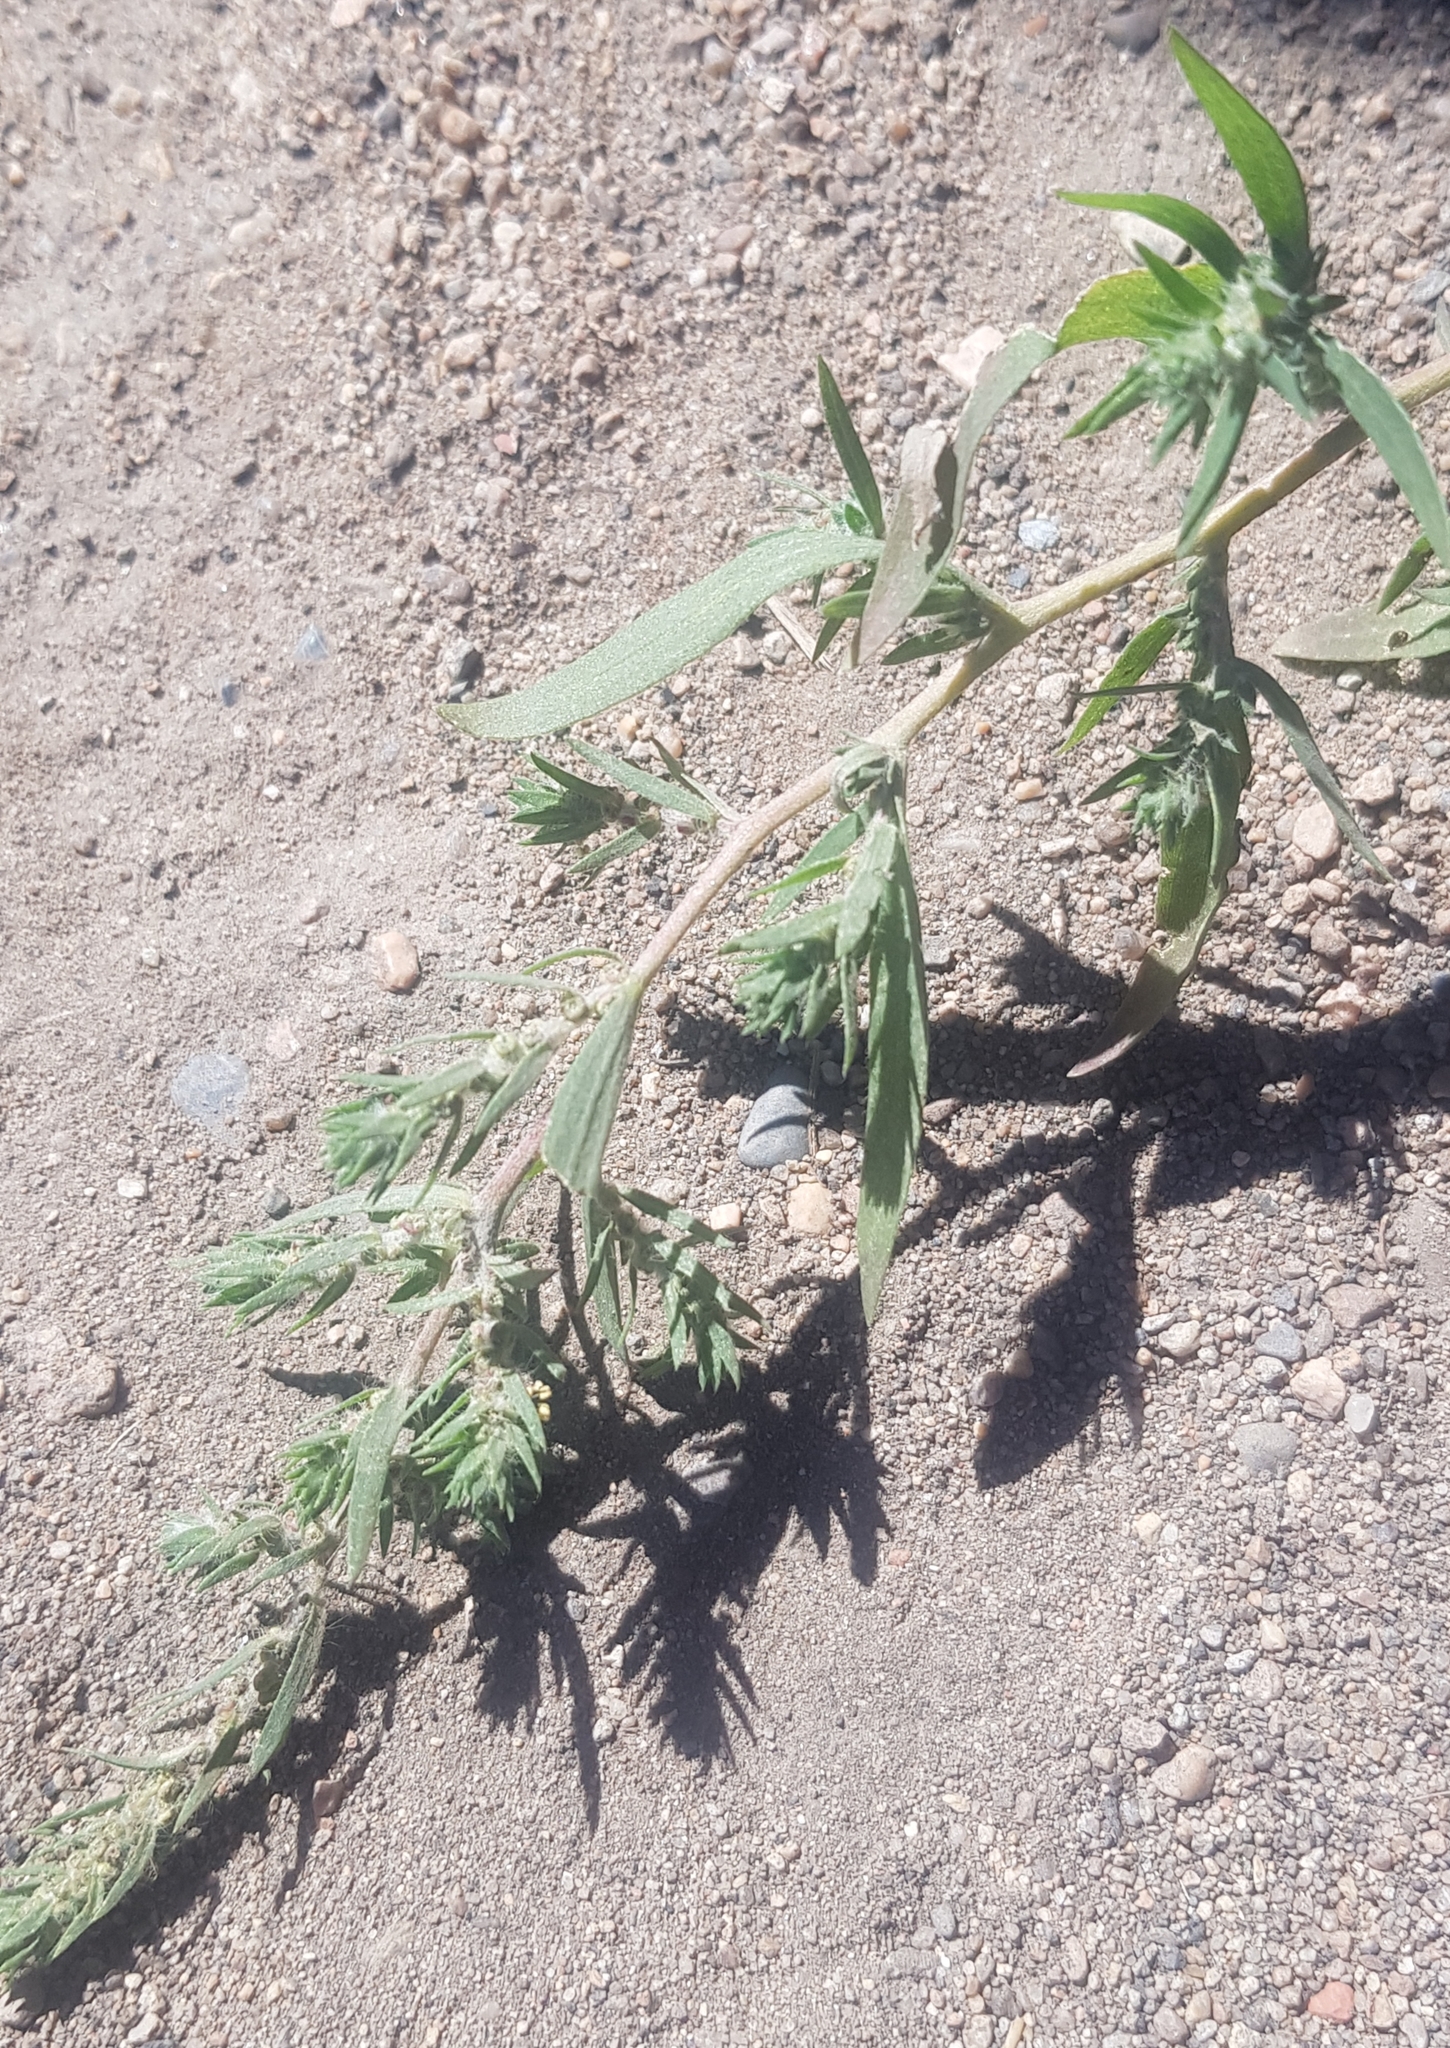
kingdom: Plantae
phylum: Tracheophyta
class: Magnoliopsida
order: Caryophyllales
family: Amaranthaceae
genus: Bassia
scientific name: Bassia scoparia
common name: Belvedere
